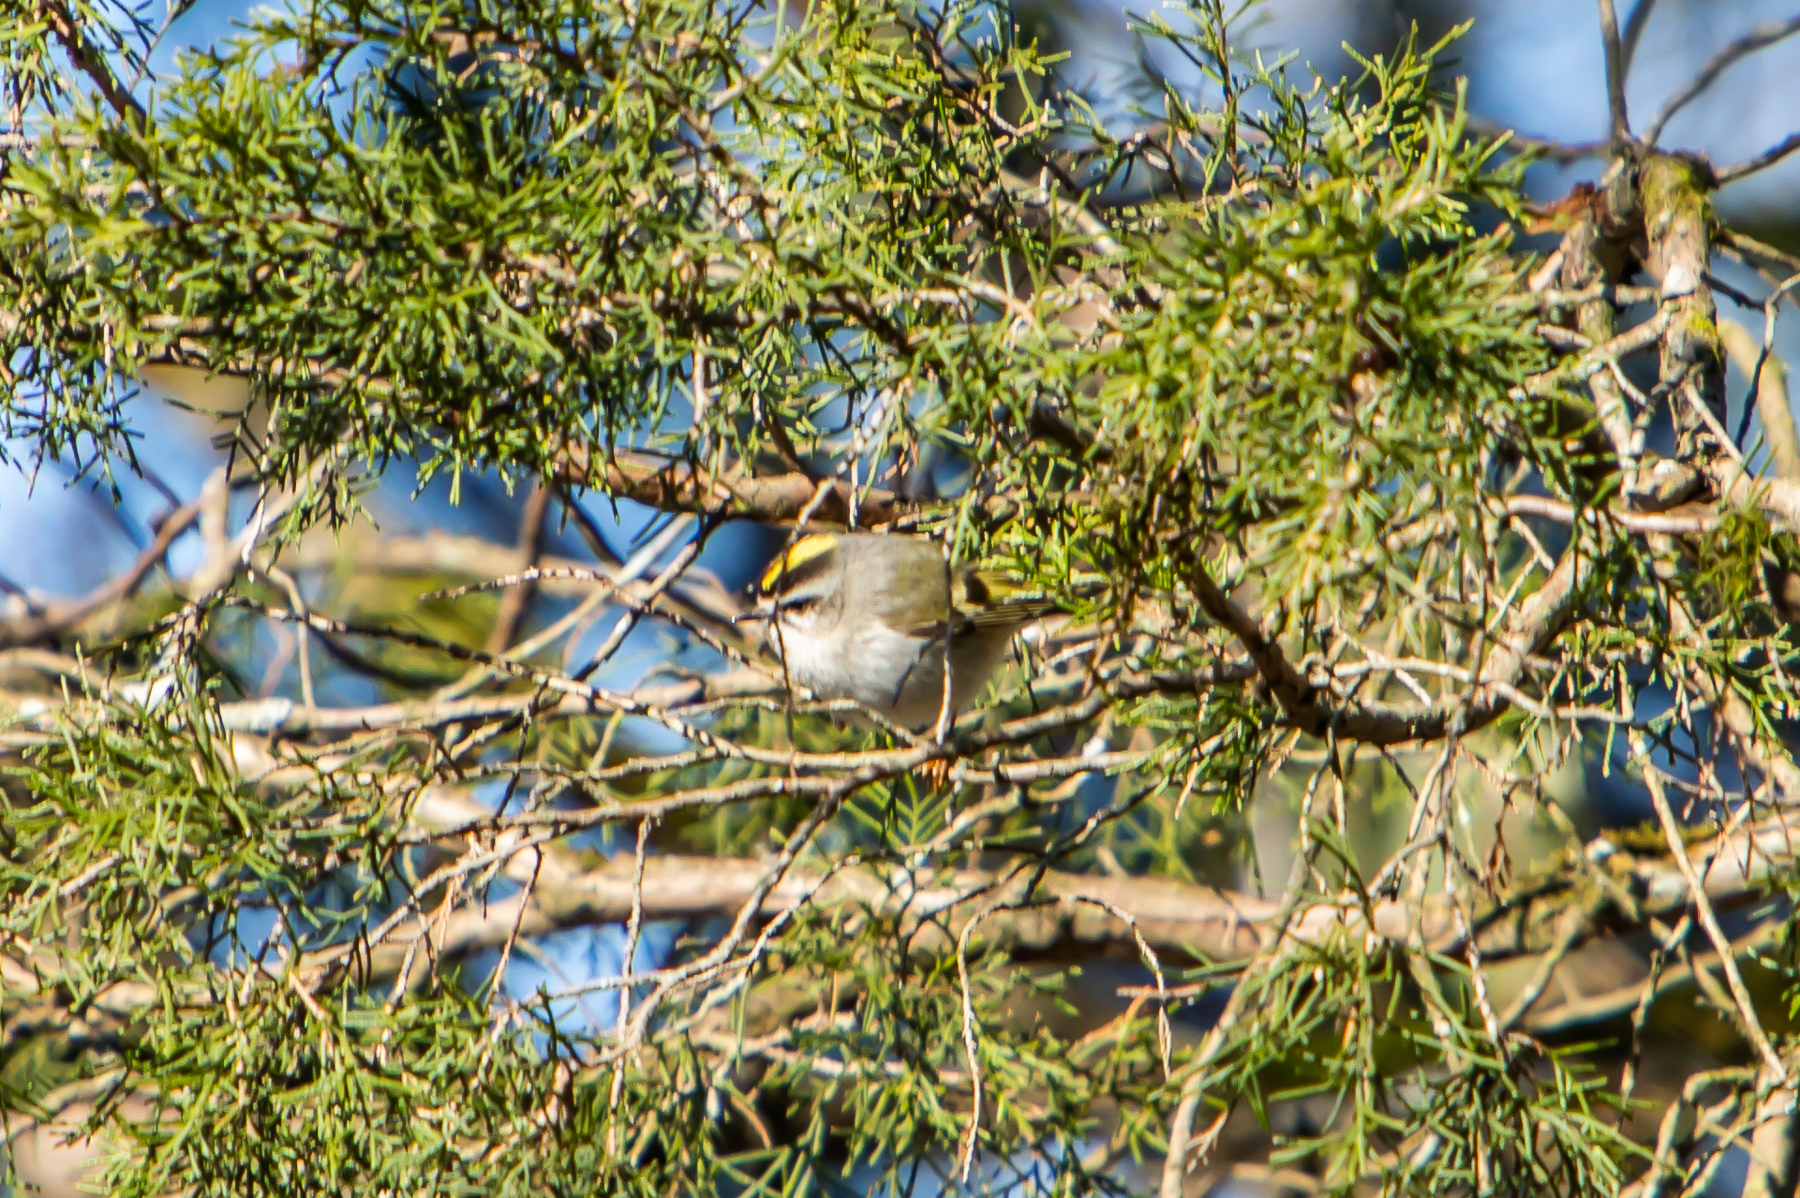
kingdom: Animalia
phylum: Chordata
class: Aves
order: Passeriformes
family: Regulidae
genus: Regulus
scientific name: Regulus satrapa
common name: Golden-crowned kinglet
